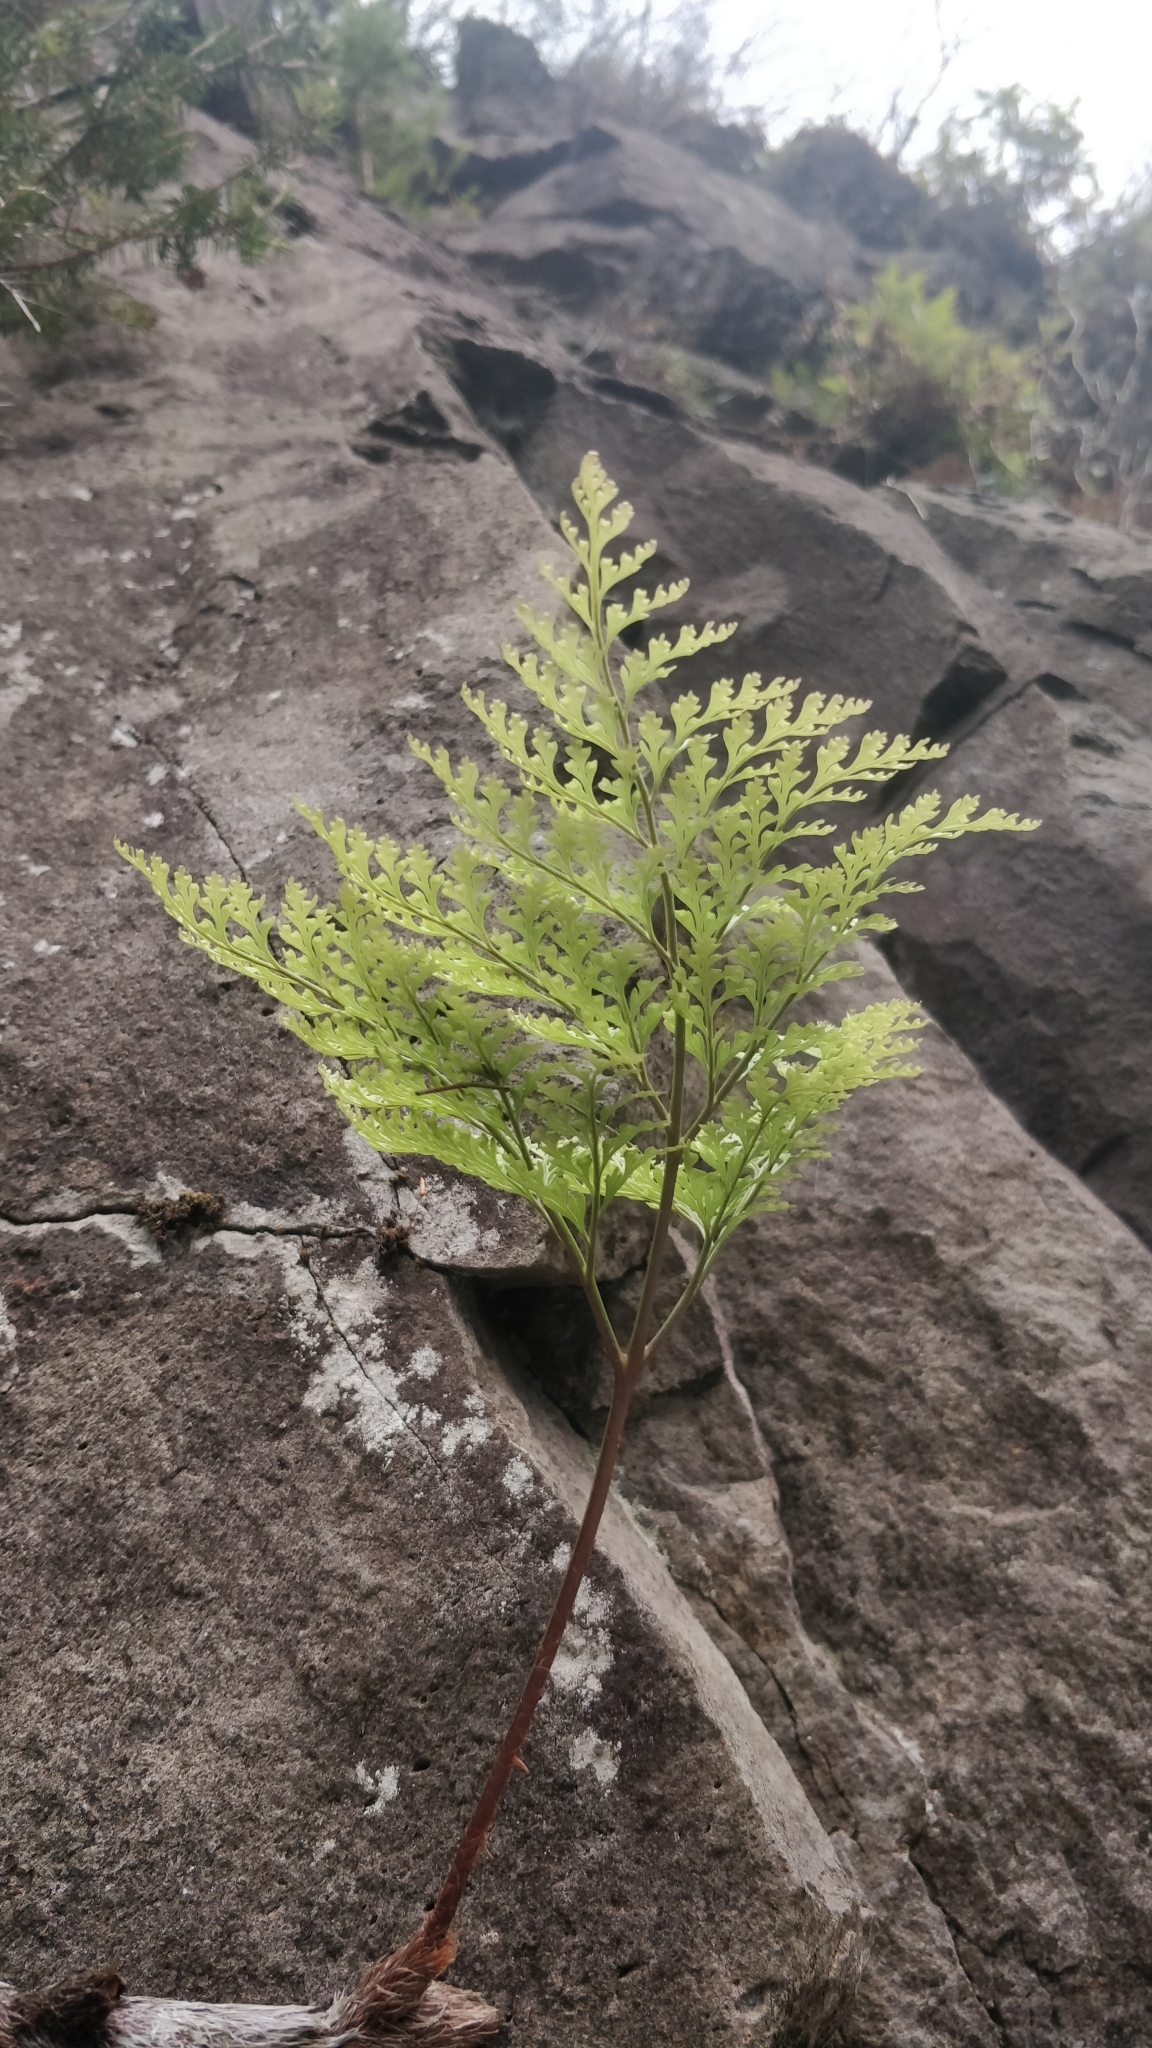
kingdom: Plantae
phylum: Tracheophyta
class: Polypodiopsida
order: Polypodiales
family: Davalliaceae
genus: Davallia
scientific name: Davallia canariensis
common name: Hare's-foot fern
